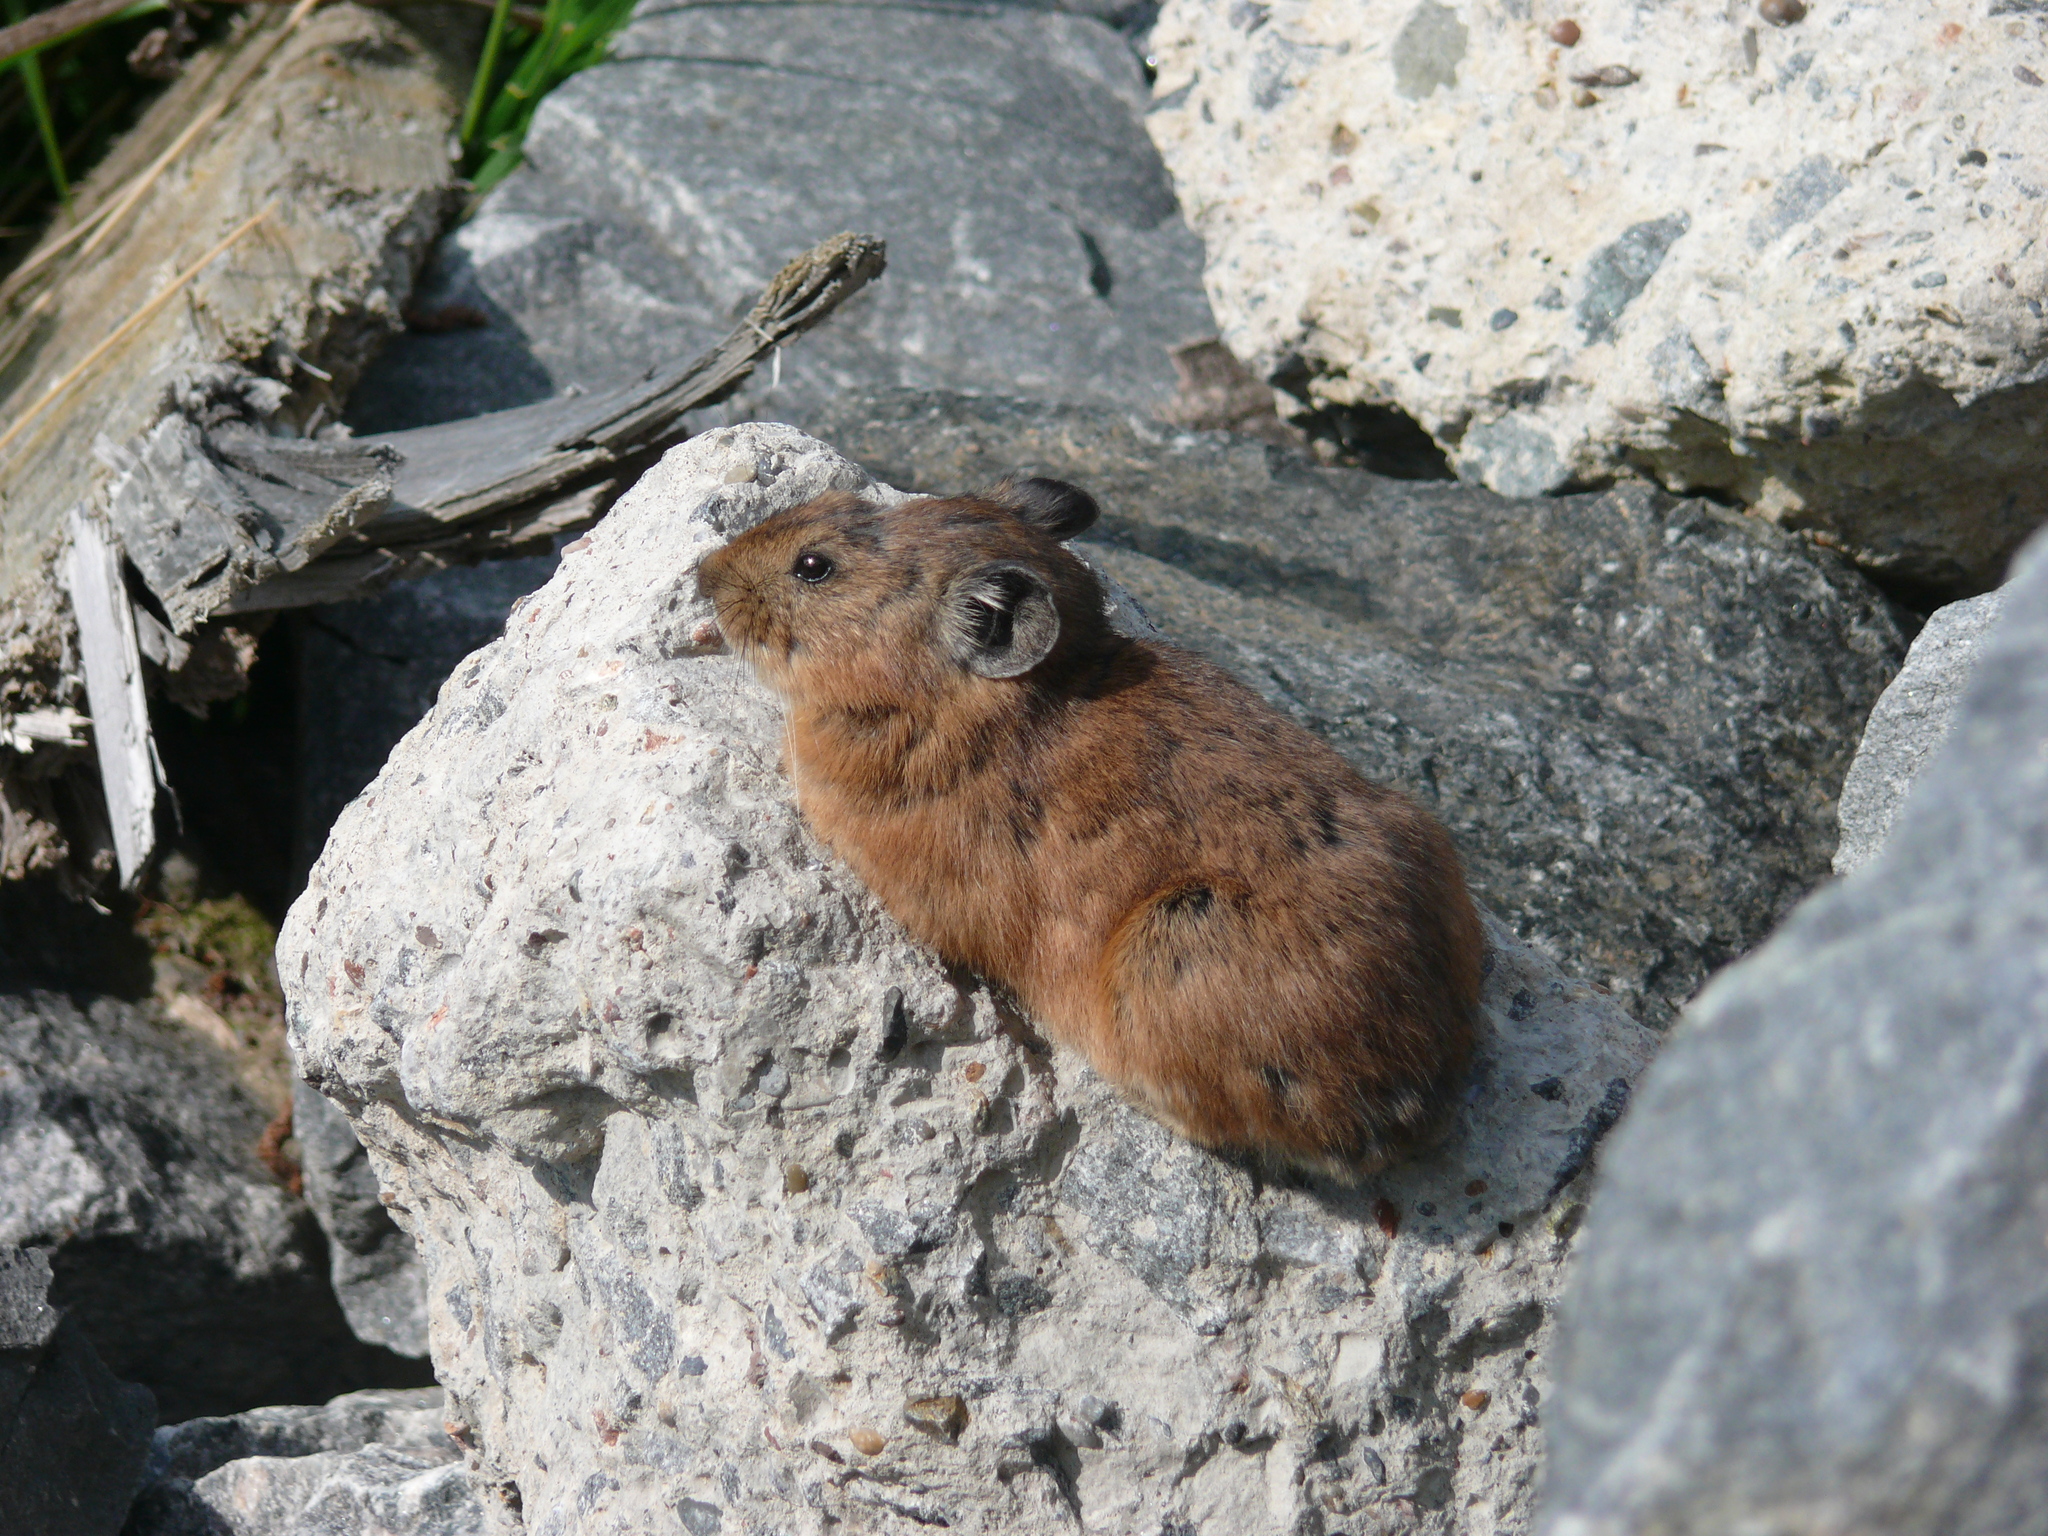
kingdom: Animalia
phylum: Chordata
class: Mammalia
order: Lagomorpha
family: Ochotonidae
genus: Ochotona
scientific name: Ochotona hyperborea
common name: Northern pika
